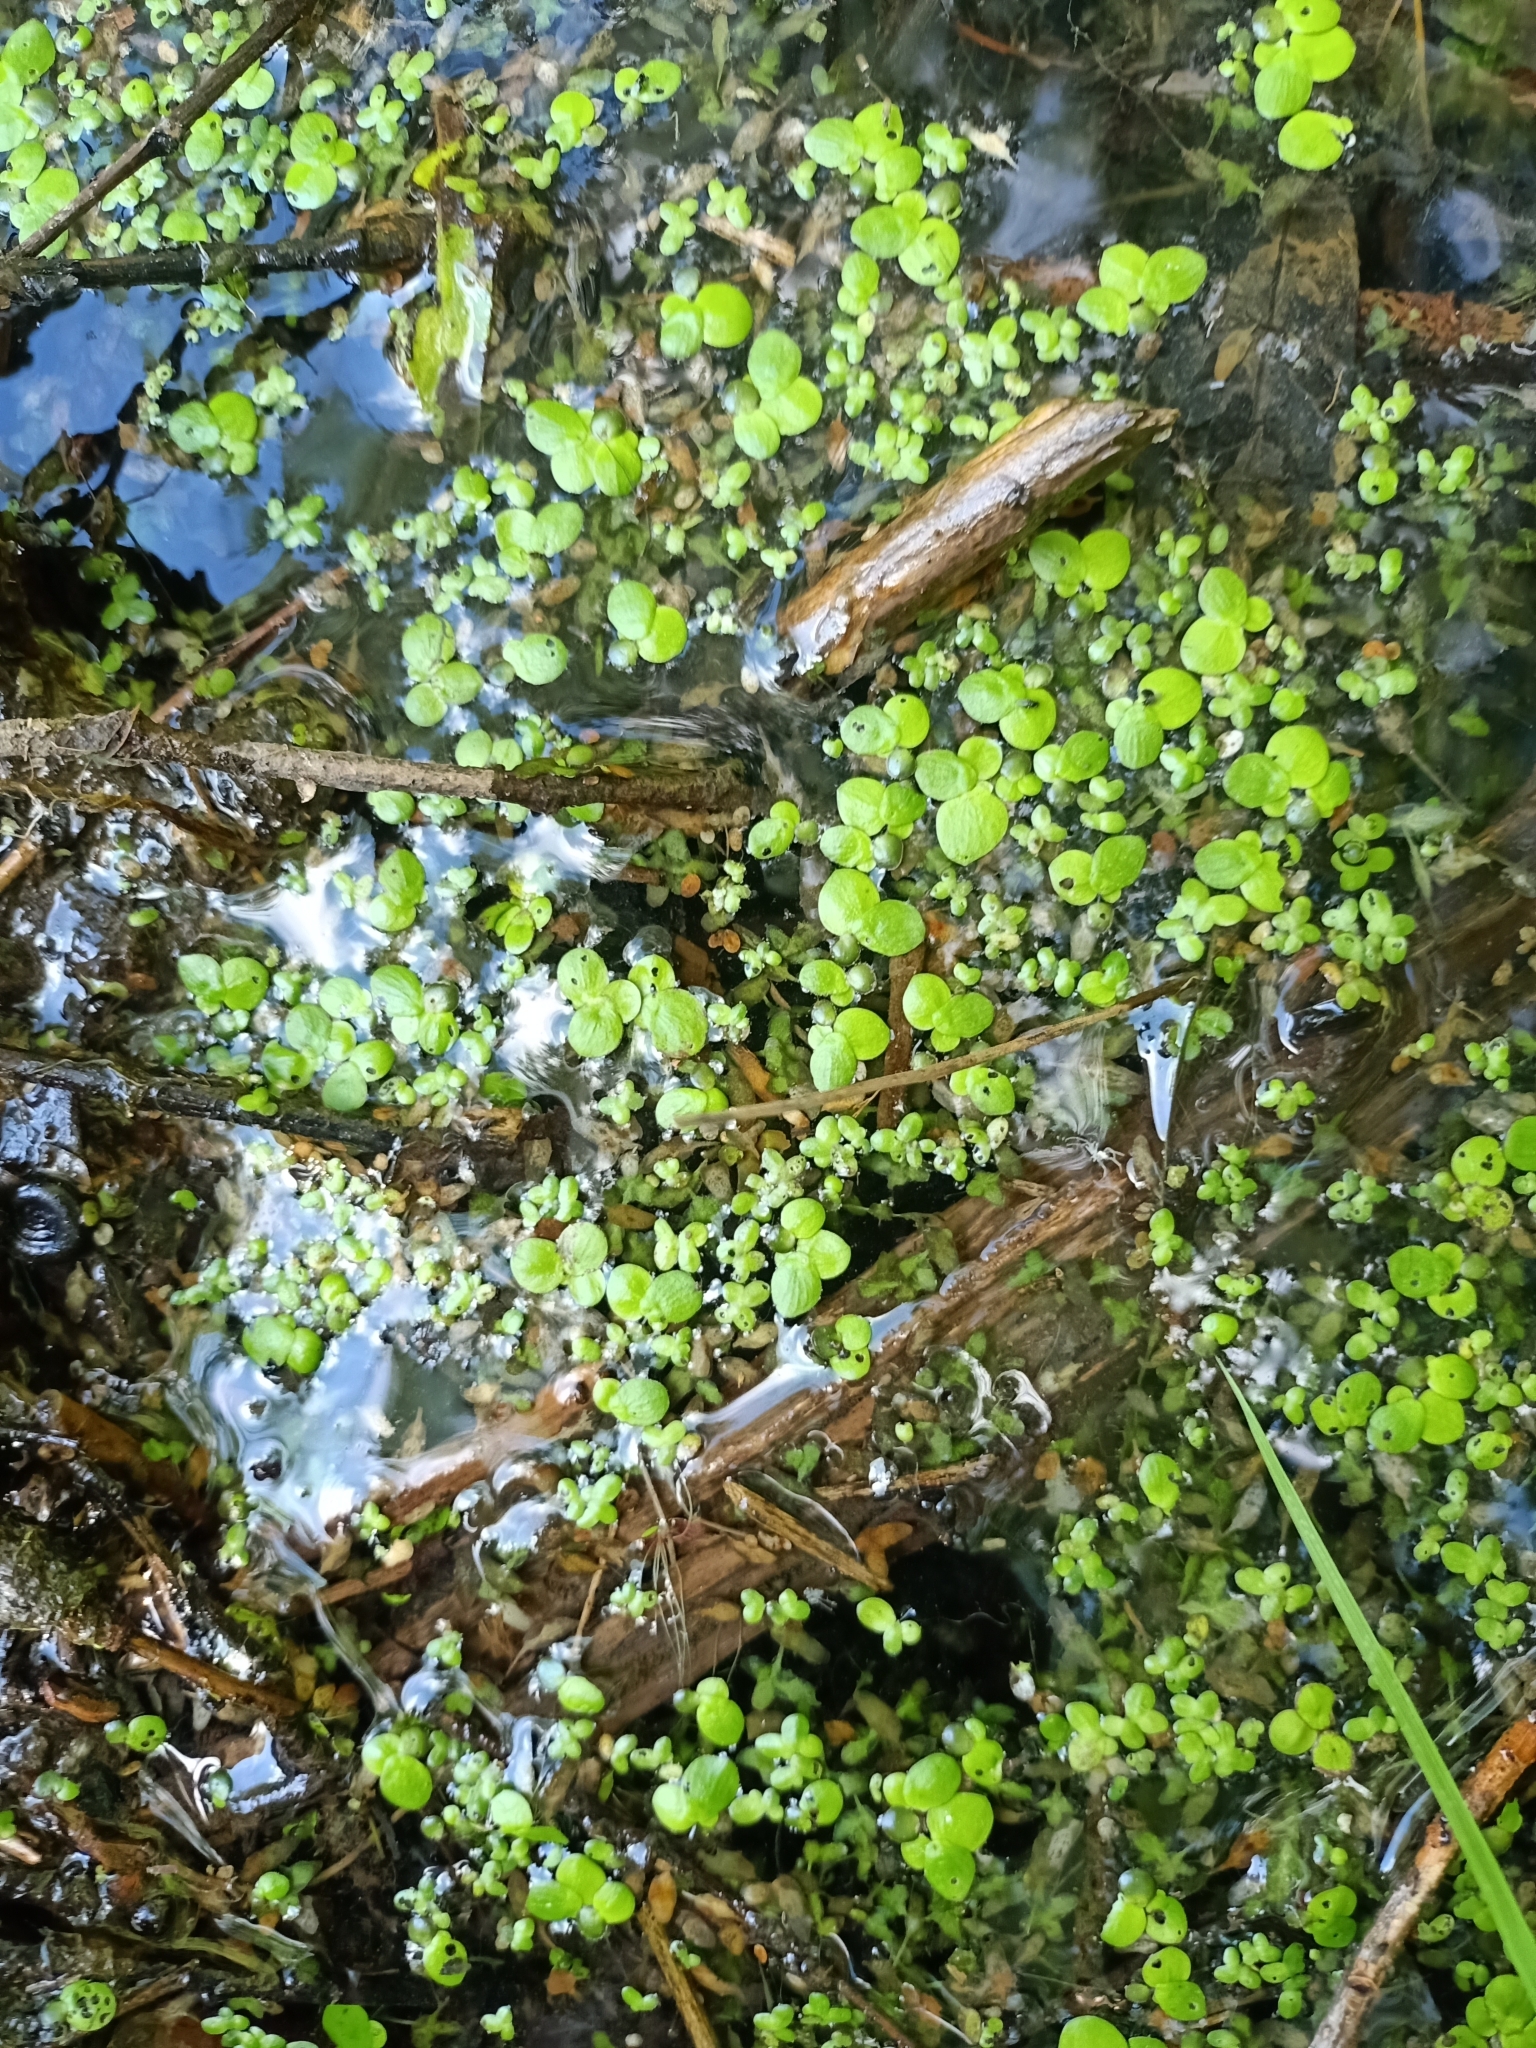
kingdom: Plantae
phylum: Tracheophyta
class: Liliopsida
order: Alismatales
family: Araceae
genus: Spirodela
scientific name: Spirodela polyrhiza
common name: Great duckweed
